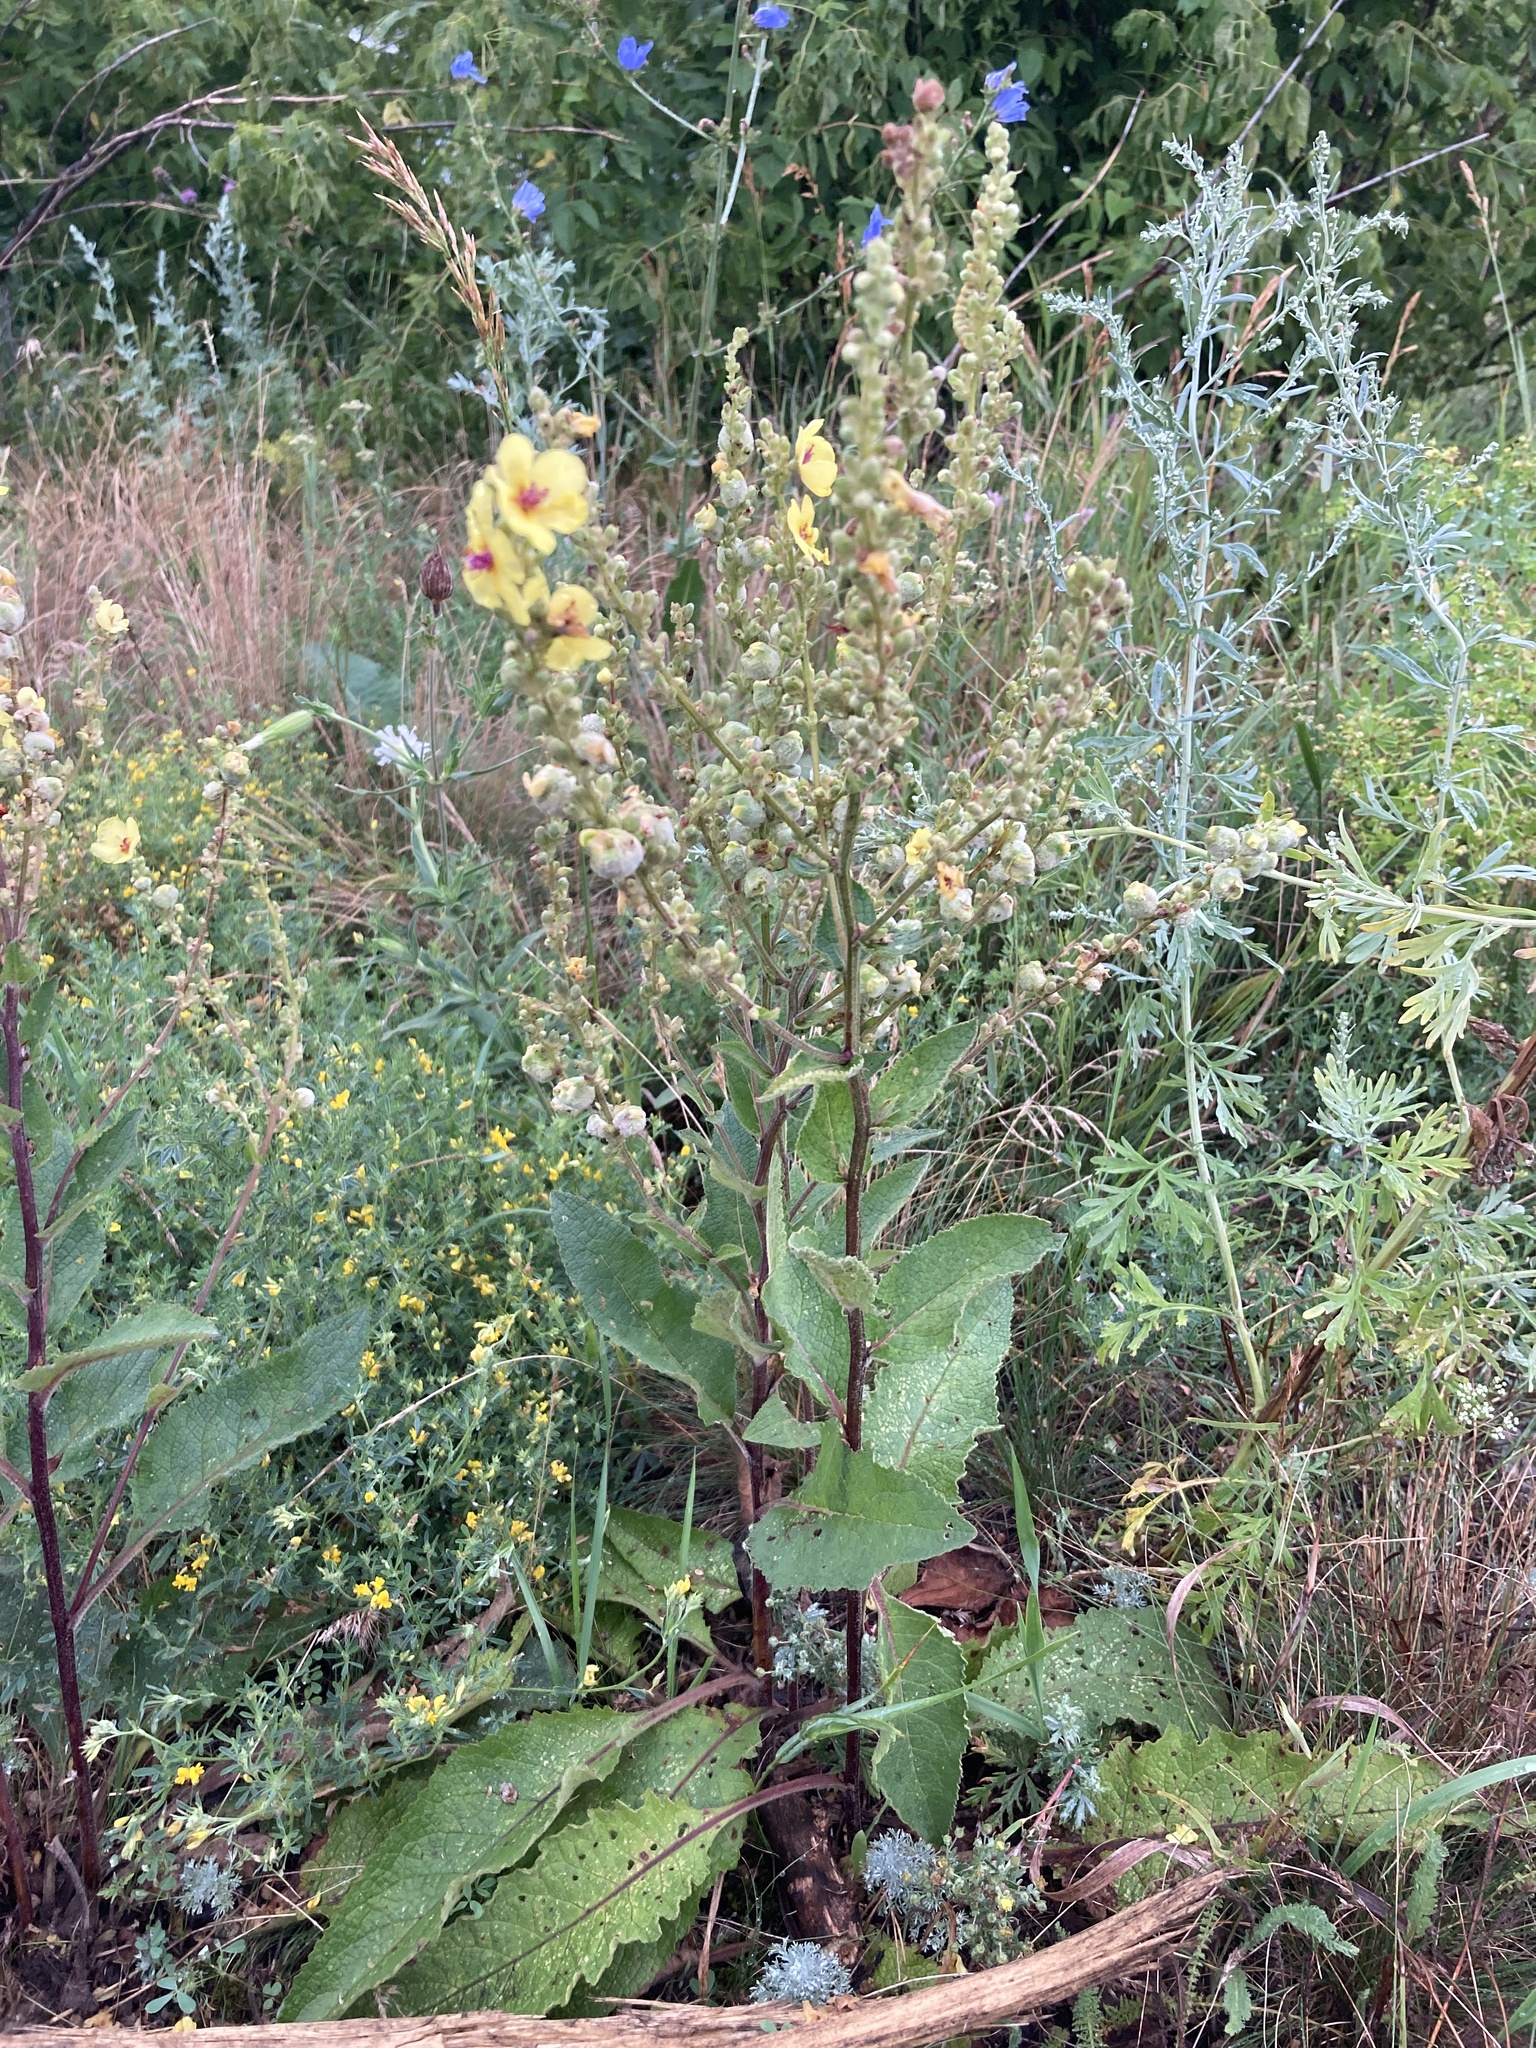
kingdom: Plantae
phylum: Tracheophyta
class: Magnoliopsida
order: Lamiales
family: Scrophulariaceae
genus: Verbascum
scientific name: Verbascum chaixii
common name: Nettle-leaved mullein
